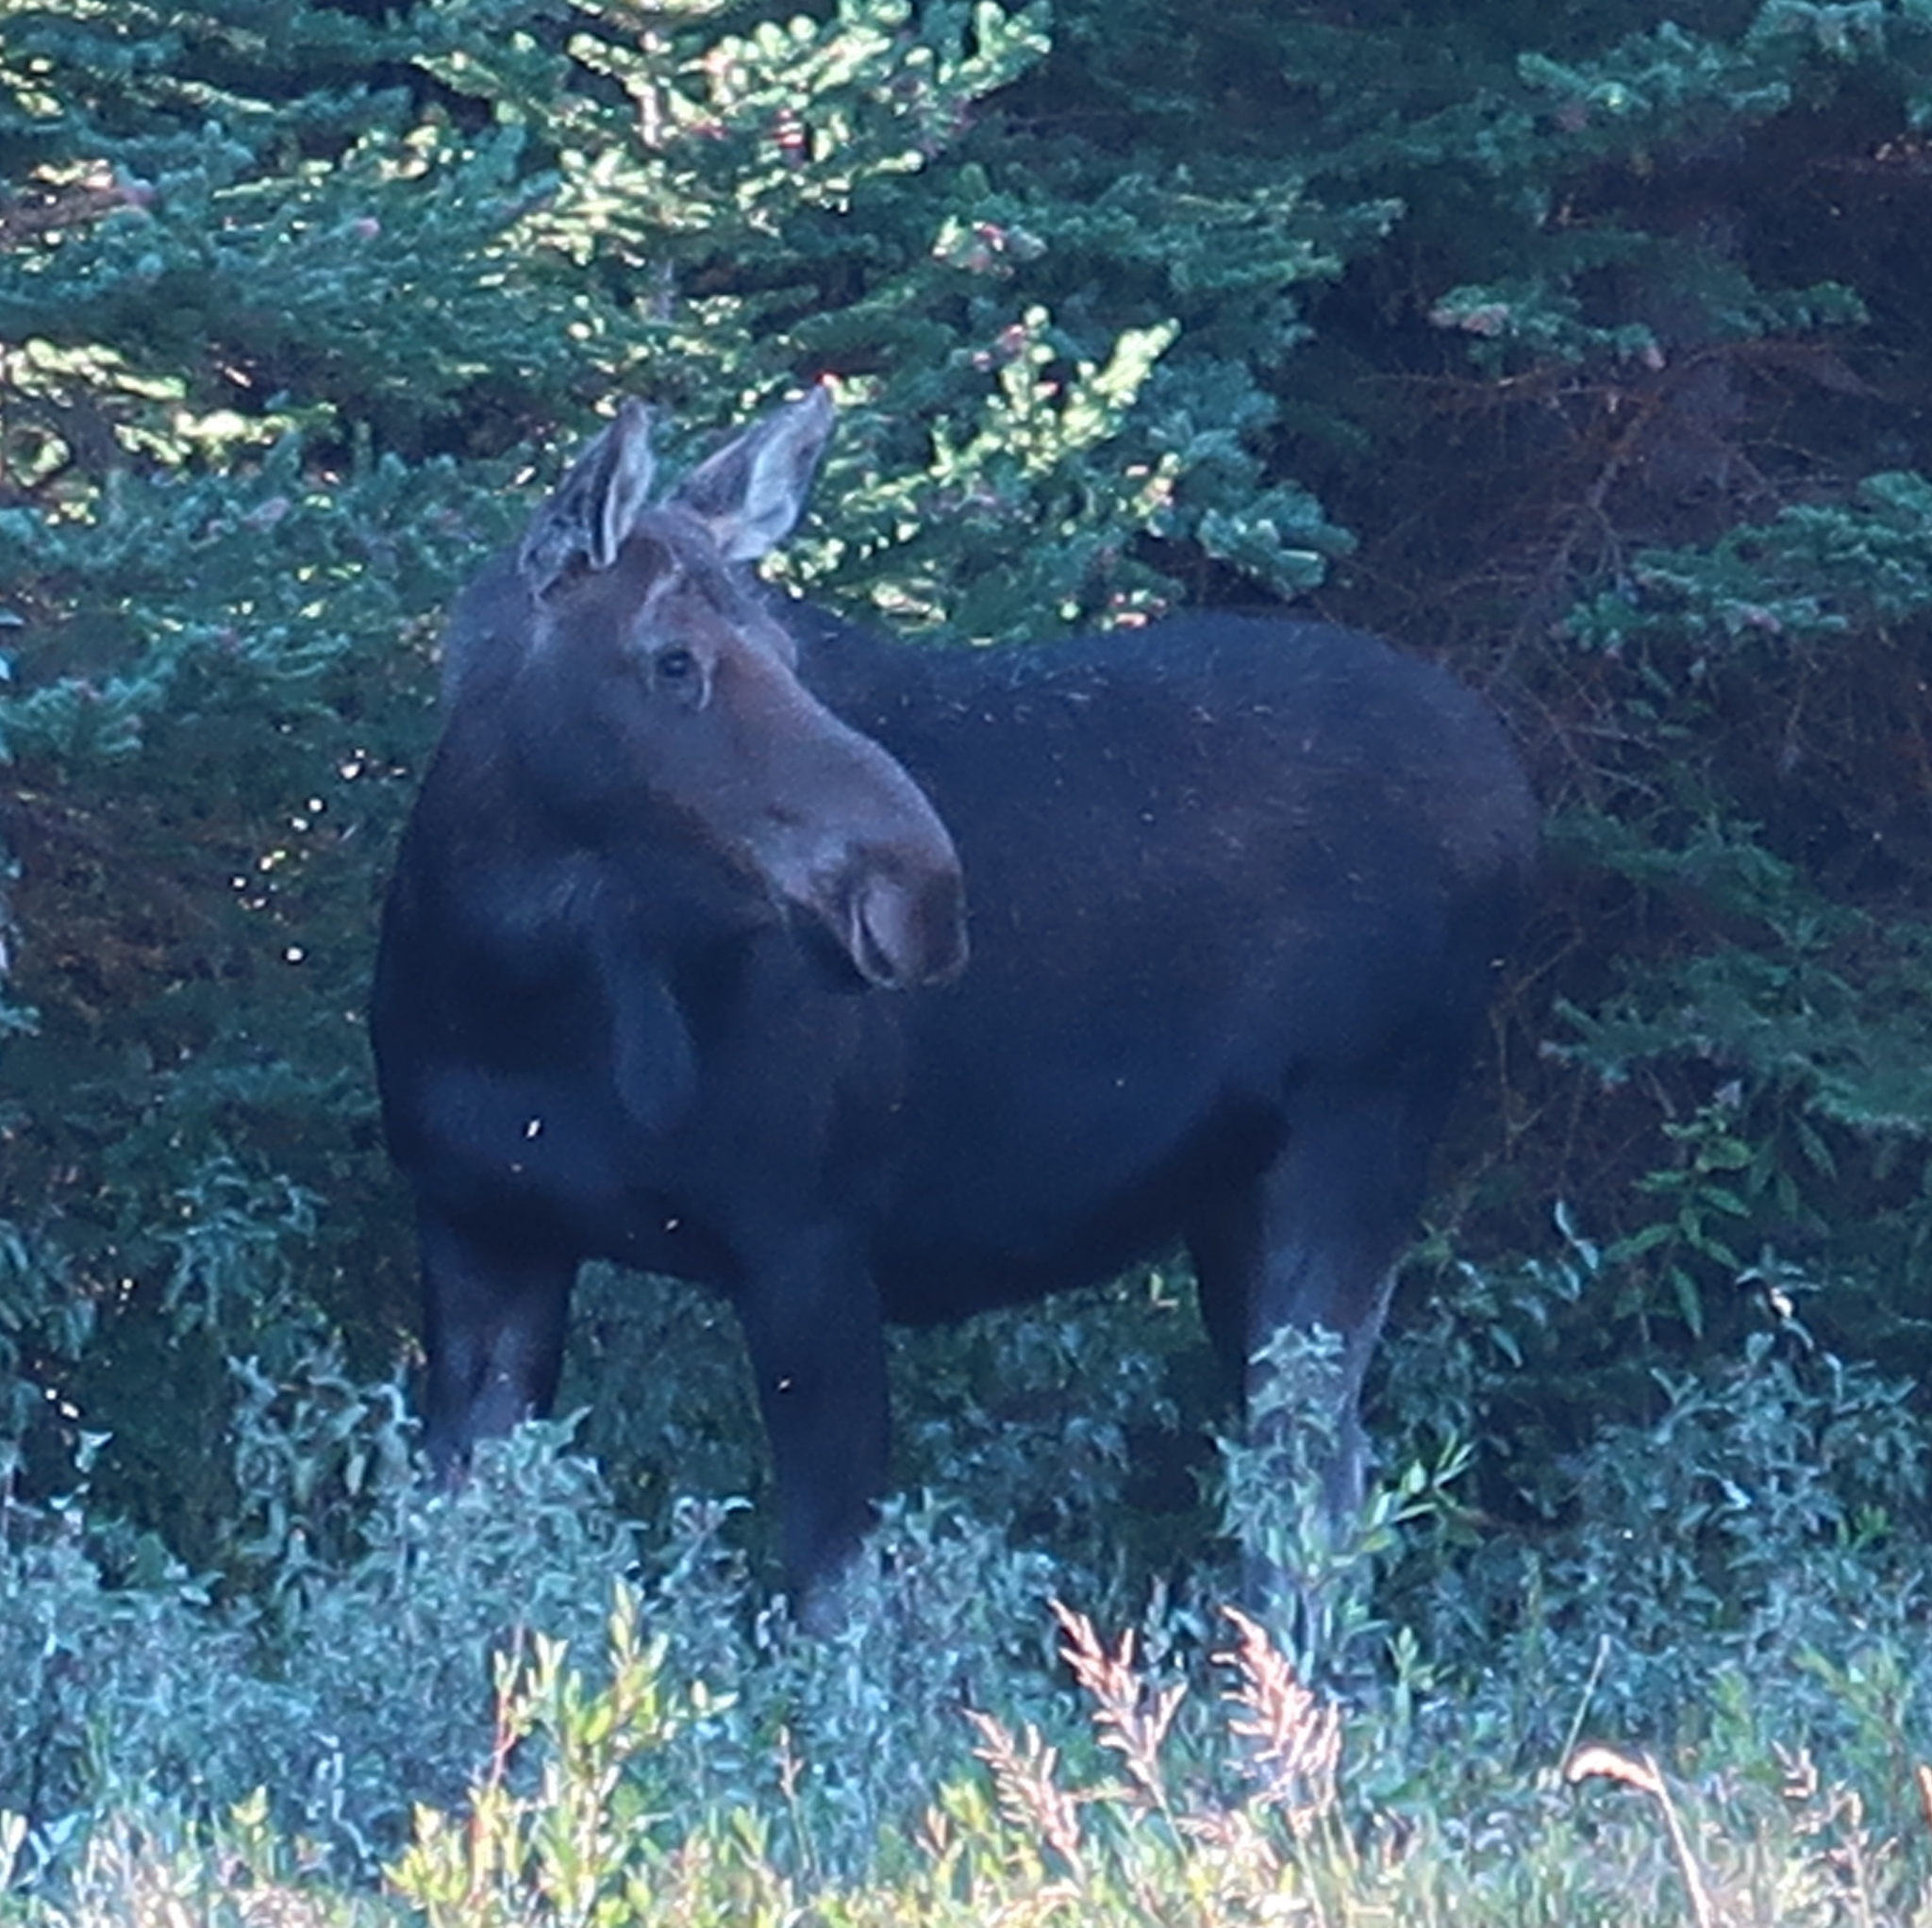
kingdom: Animalia
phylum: Chordata
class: Mammalia
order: Artiodactyla
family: Cervidae
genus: Alces
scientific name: Alces alces
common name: Moose
